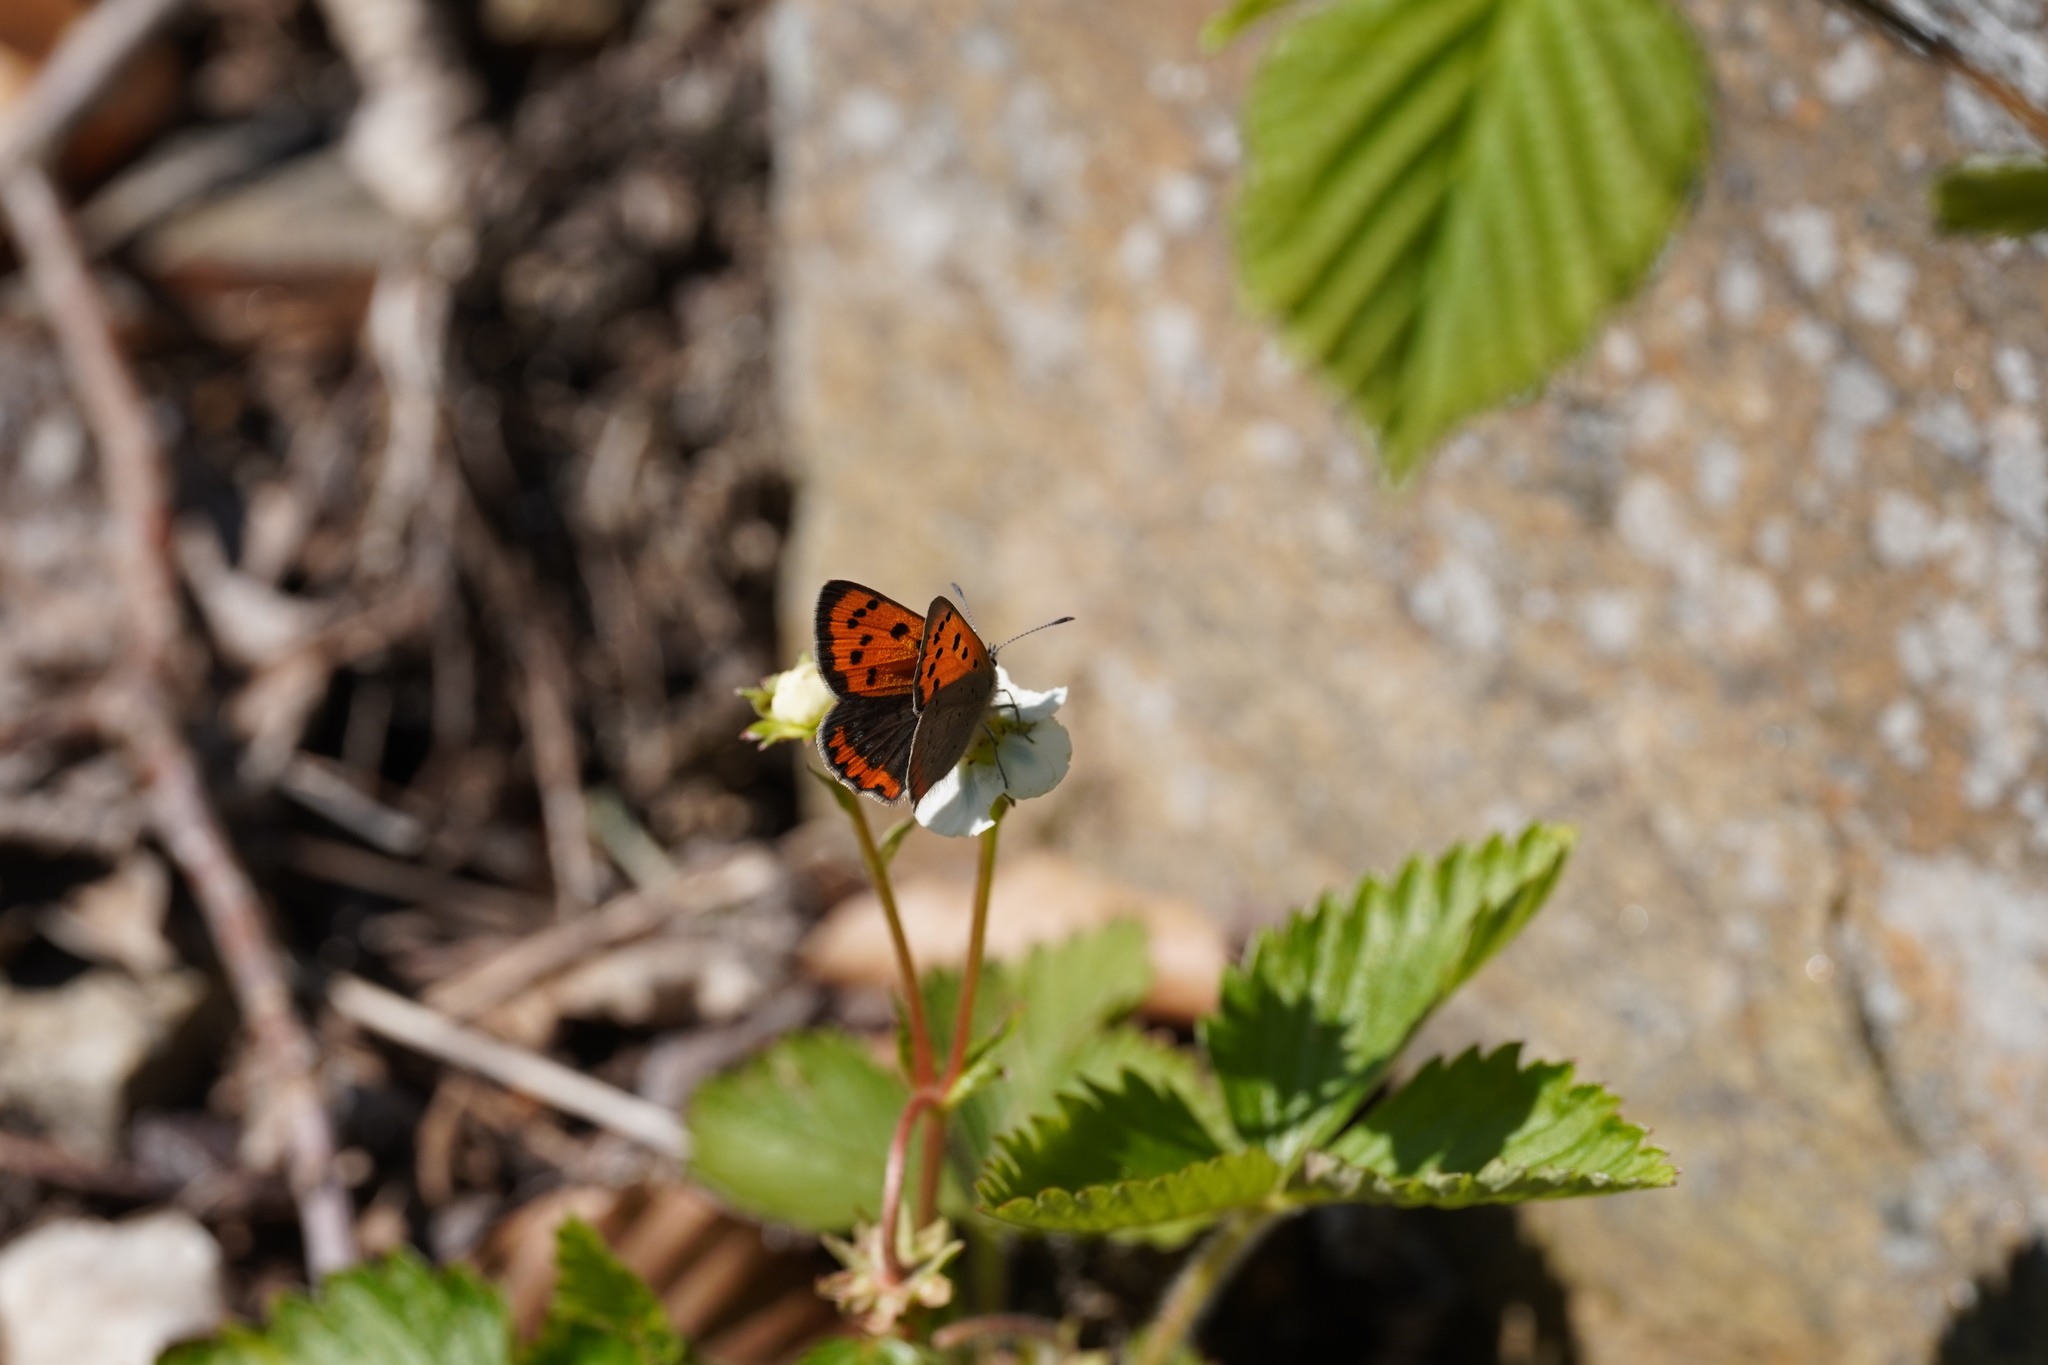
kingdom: Animalia
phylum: Arthropoda
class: Insecta
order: Lepidoptera
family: Lycaenidae
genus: Lycaena
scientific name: Lycaena phlaeas
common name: Small copper
